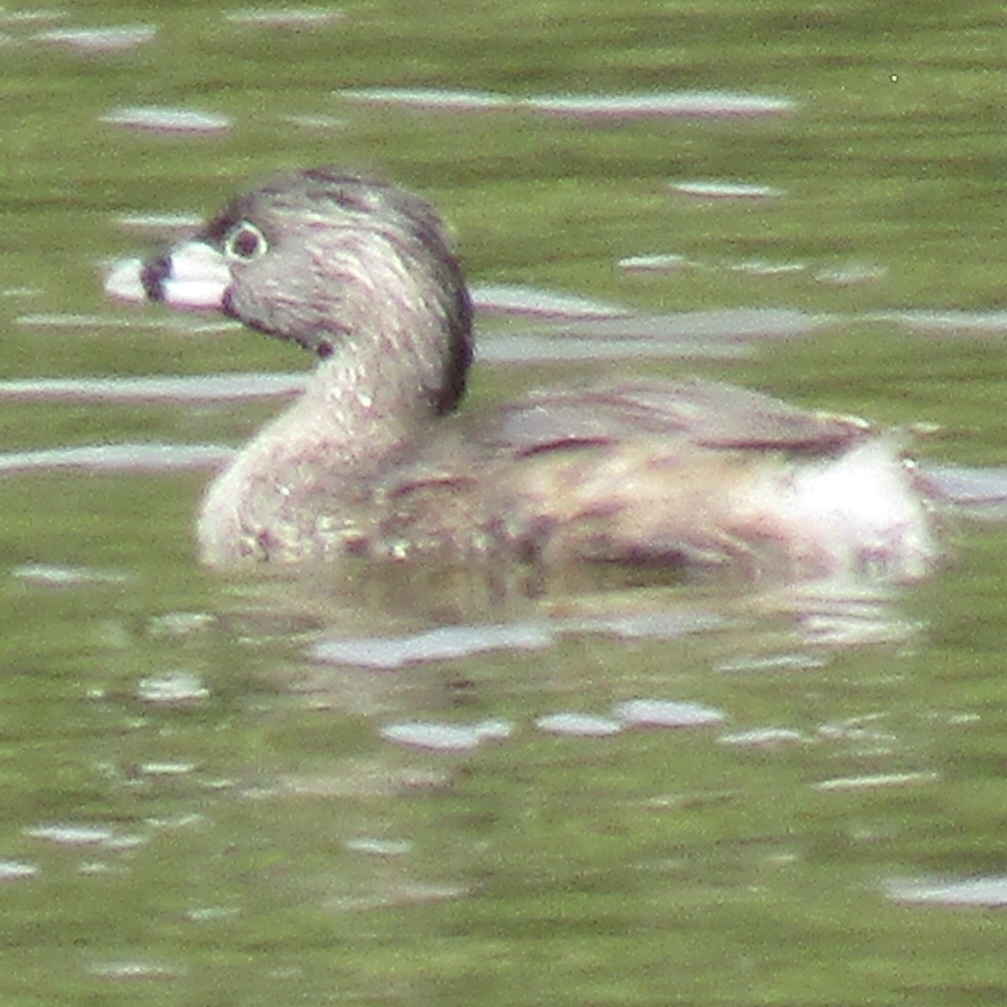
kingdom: Animalia
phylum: Chordata
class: Aves
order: Podicipediformes
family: Podicipedidae
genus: Podilymbus
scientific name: Podilymbus podiceps
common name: Pied-billed grebe
